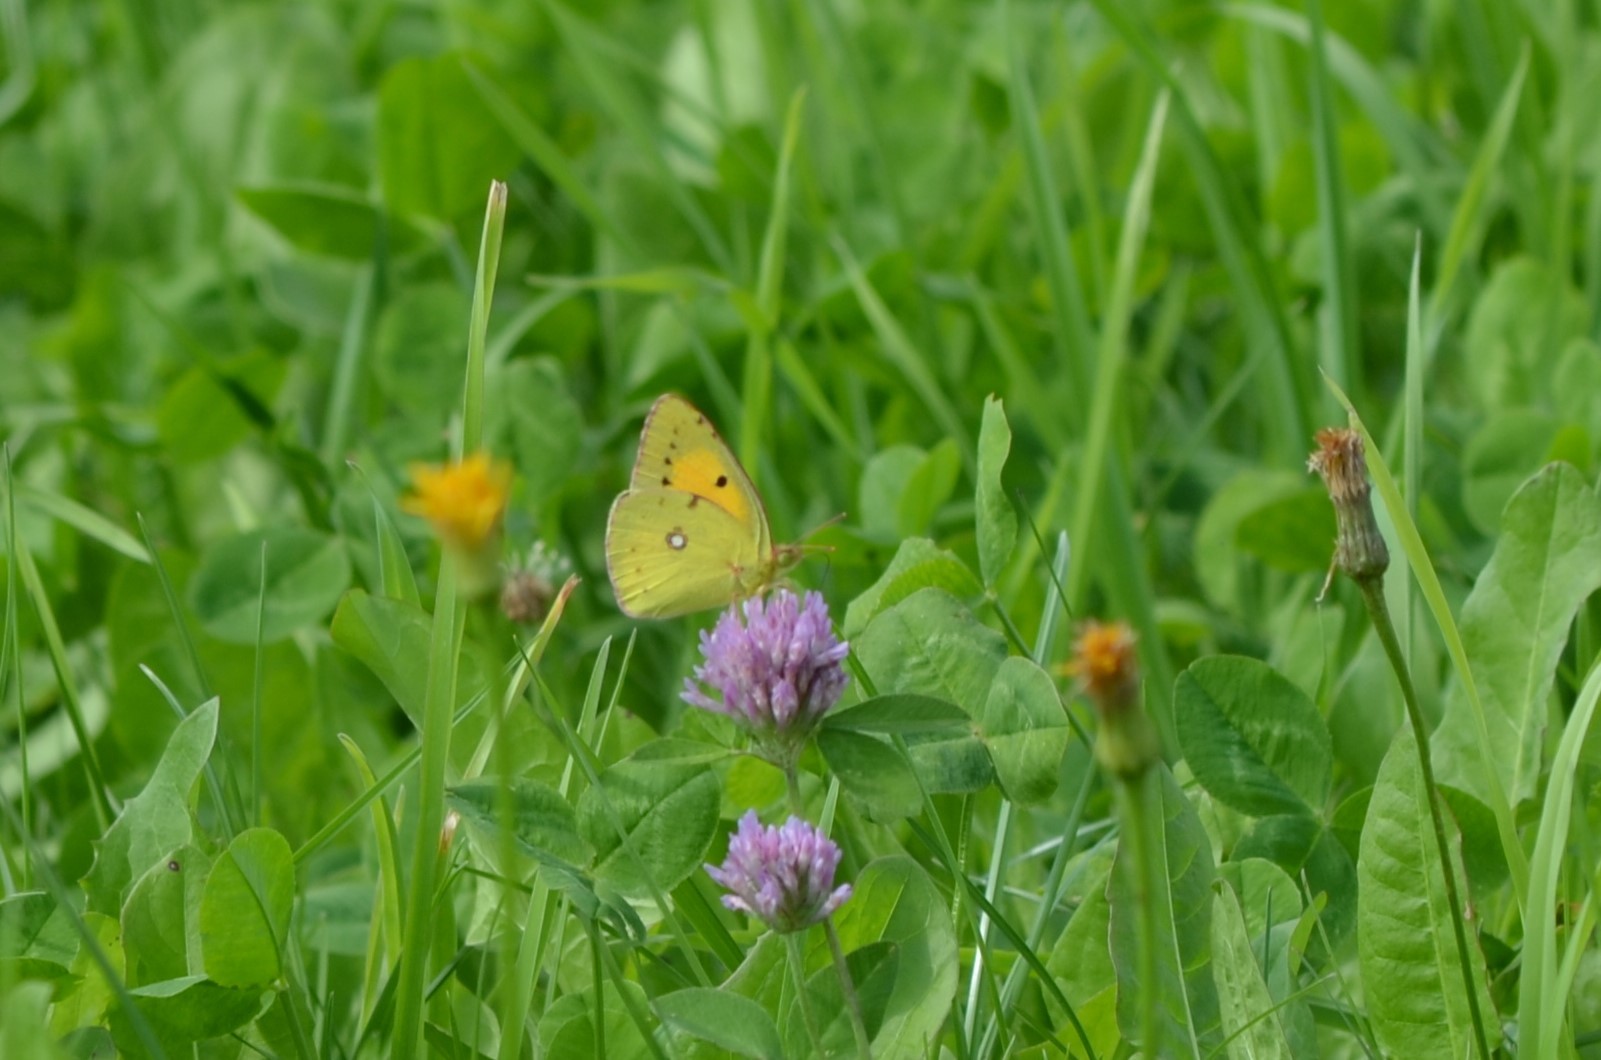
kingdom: Animalia
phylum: Arthropoda
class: Insecta
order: Lepidoptera
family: Pieridae
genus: Colias
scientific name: Colias croceus
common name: Clouded yellow
